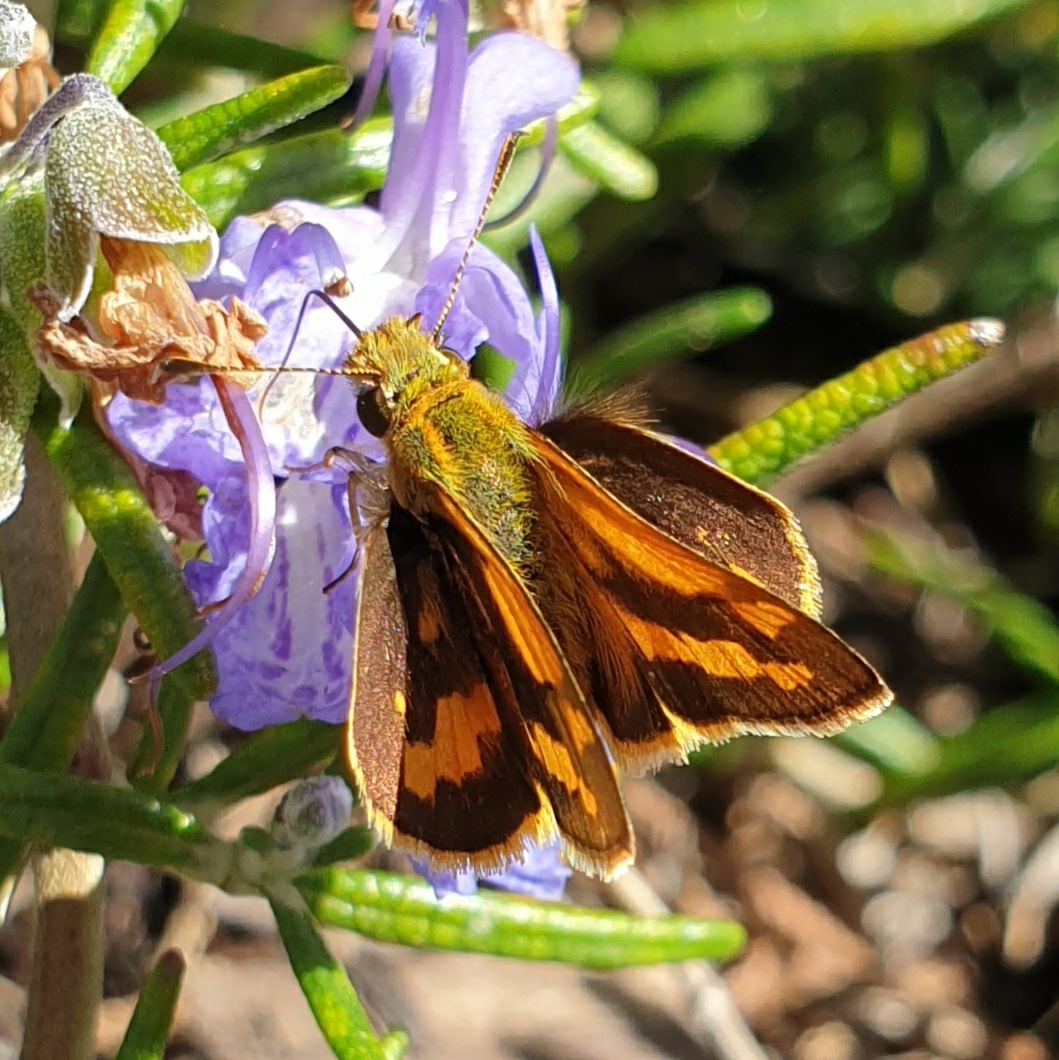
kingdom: Animalia
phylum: Arthropoda
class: Insecta
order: Lepidoptera
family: Hesperiidae
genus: Ocybadistes
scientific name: Ocybadistes walkeri
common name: Yellow-banded dart
